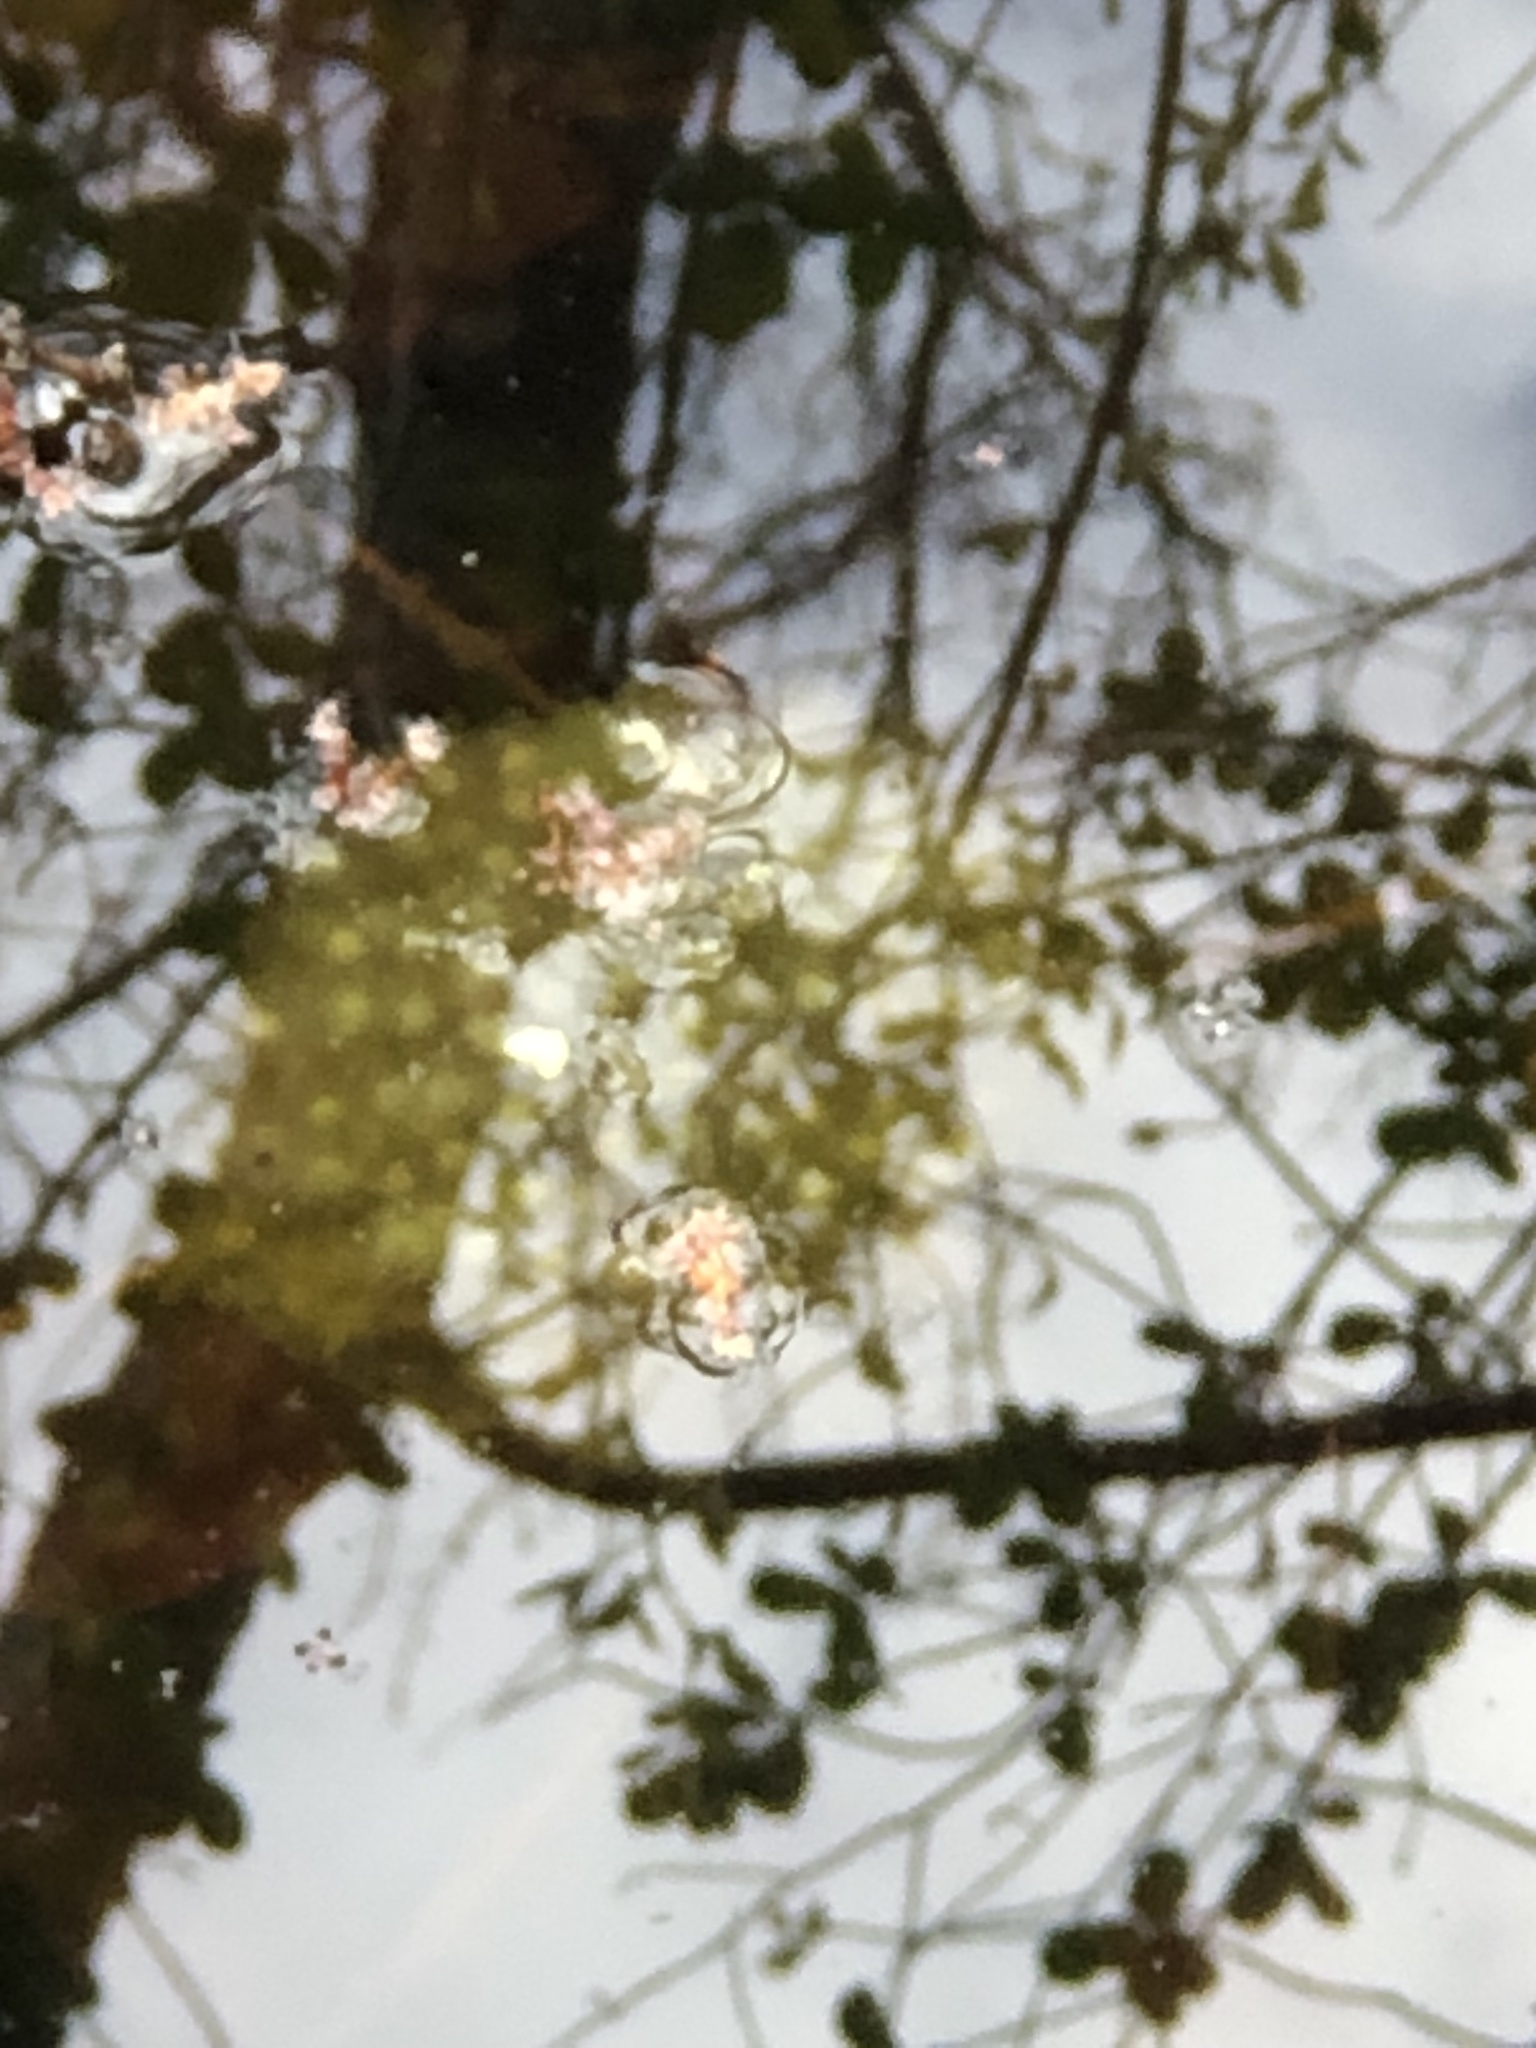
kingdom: Animalia
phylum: Chordata
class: Amphibia
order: Anura
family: Ranidae
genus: Lithobates
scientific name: Lithobates sylvaticus
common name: Wood frog
